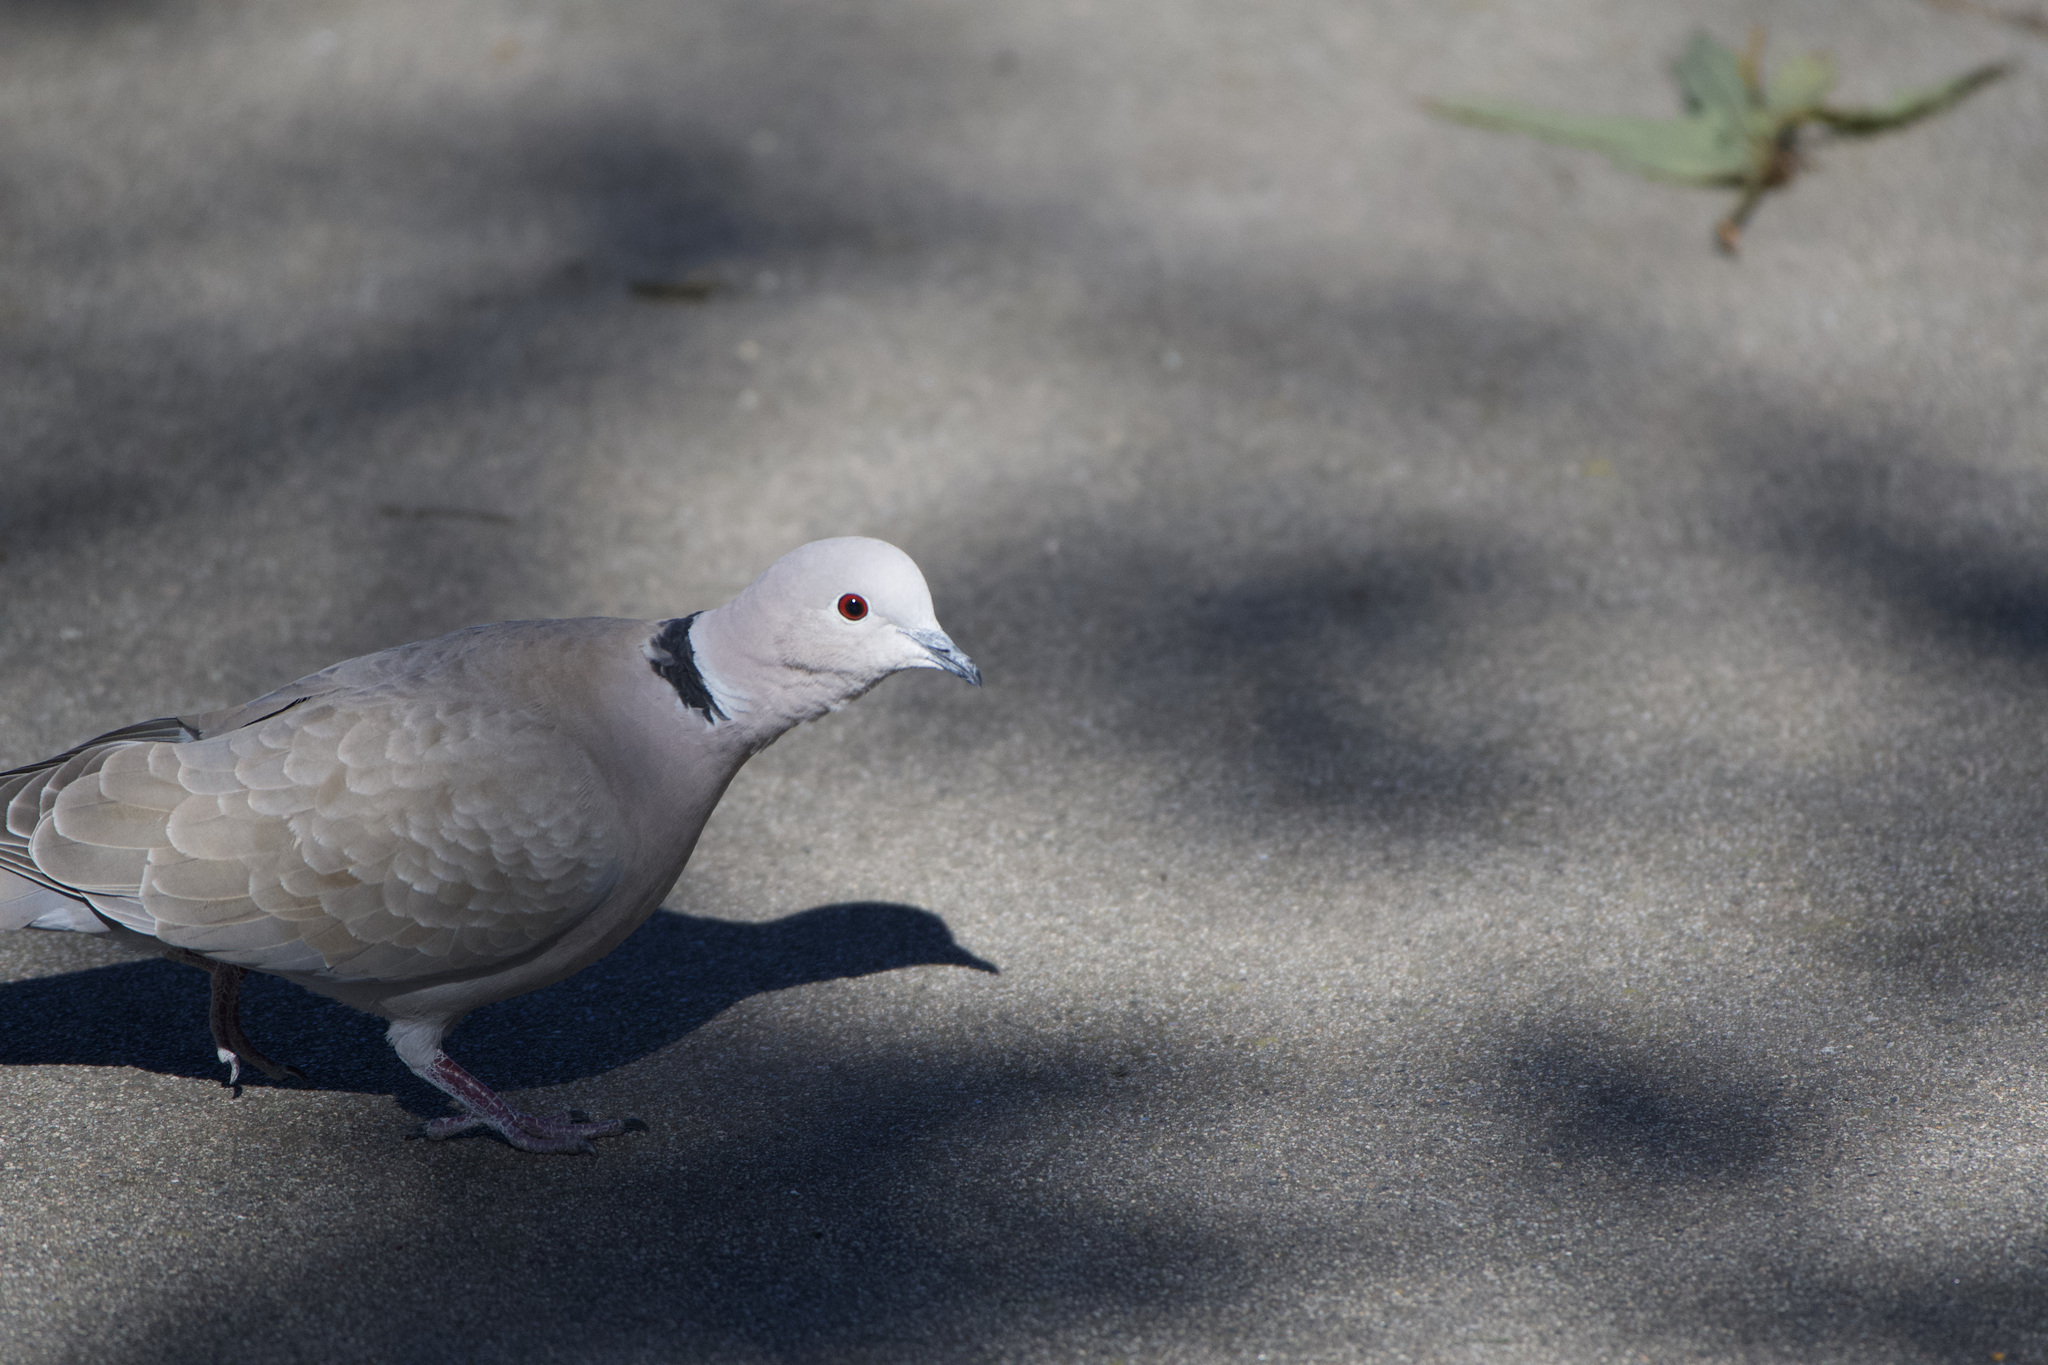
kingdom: Animalia
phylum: Chordata
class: Aves
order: Columbiformes
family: Columbidae
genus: Streptopelia
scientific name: Streptopelia decaocto
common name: Eurasian collared dove
